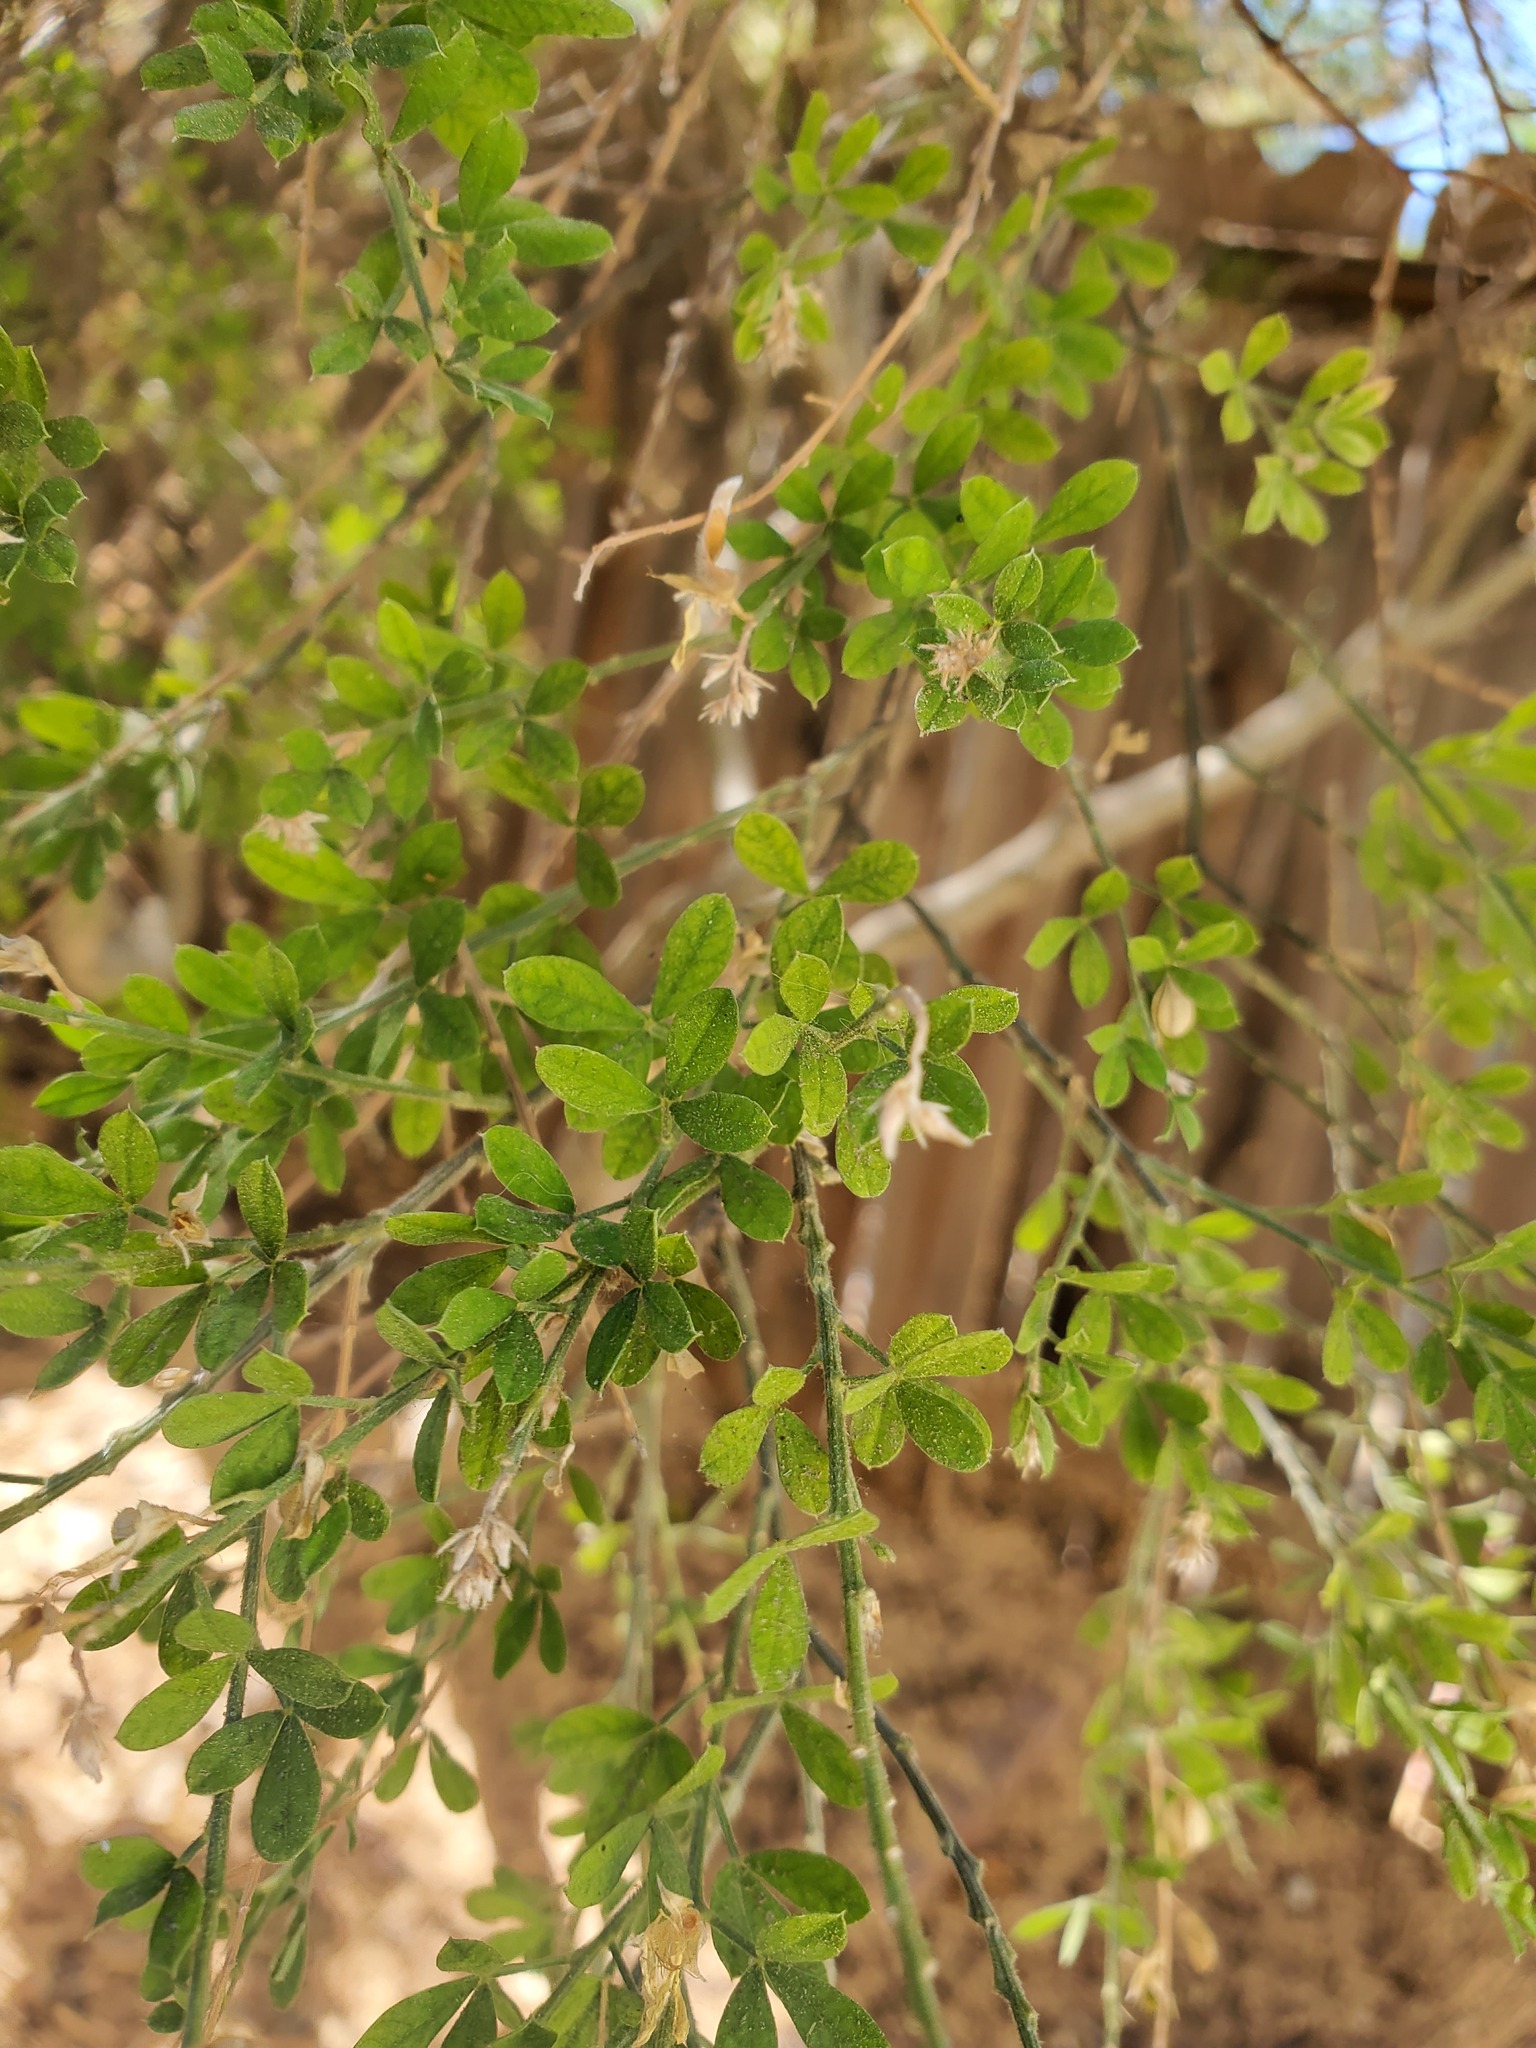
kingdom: Plantae
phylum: Tracheophyta
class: Magnoliopsida
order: Fabales
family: Fabaceae
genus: Genista
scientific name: Genista monspessulana
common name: Montpellier broom
